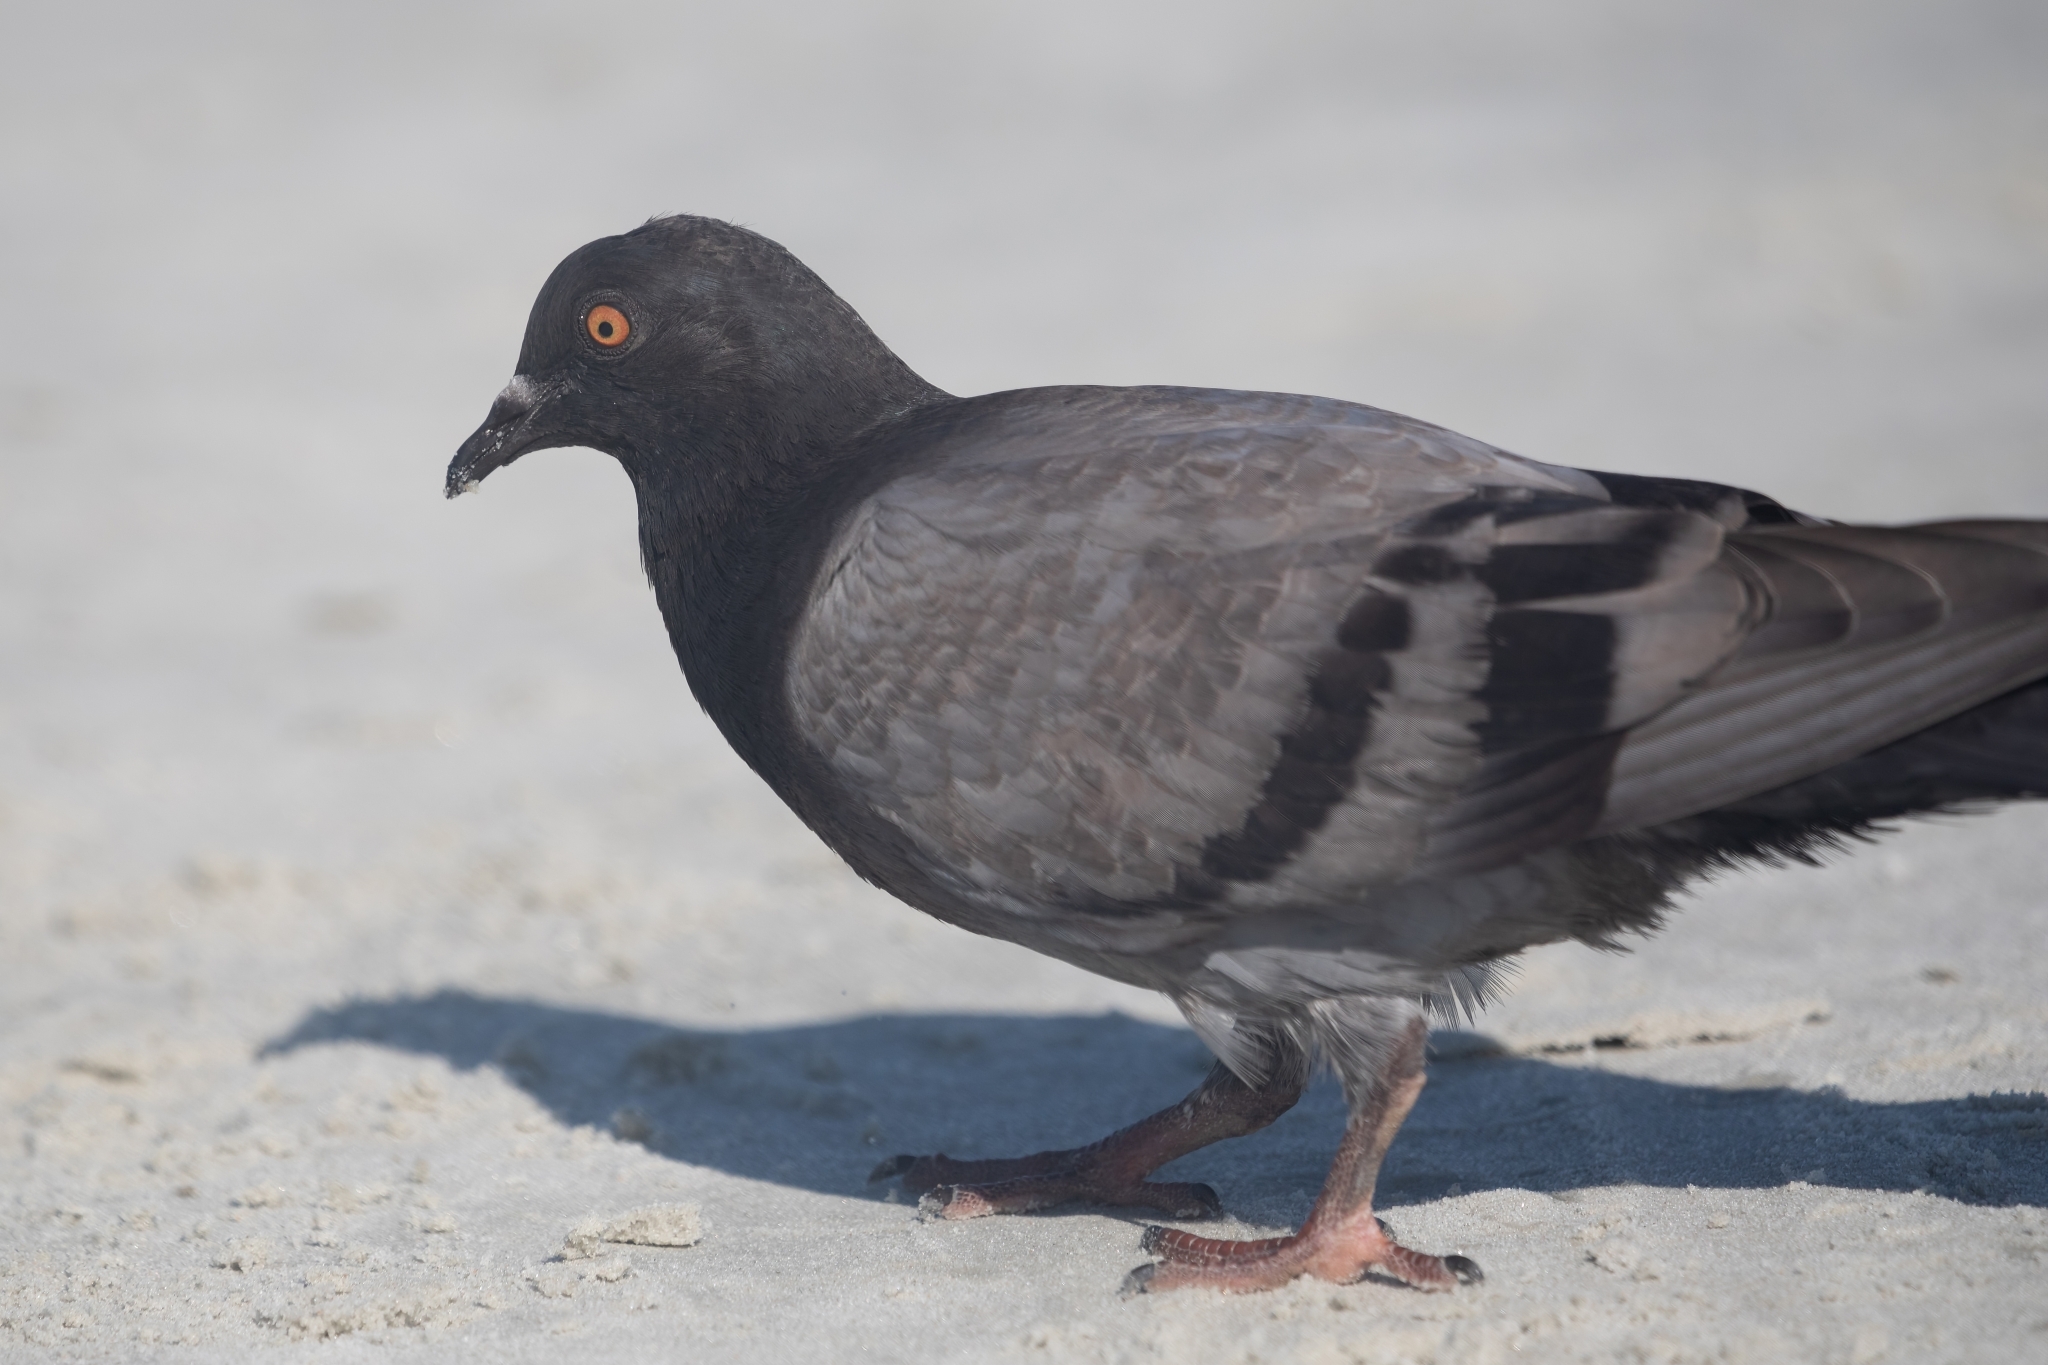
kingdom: Animalia
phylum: Chordata
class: Aves
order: Columbiformes
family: Columbidae
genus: Columba
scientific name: Columba livia
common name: Rock pigeon
